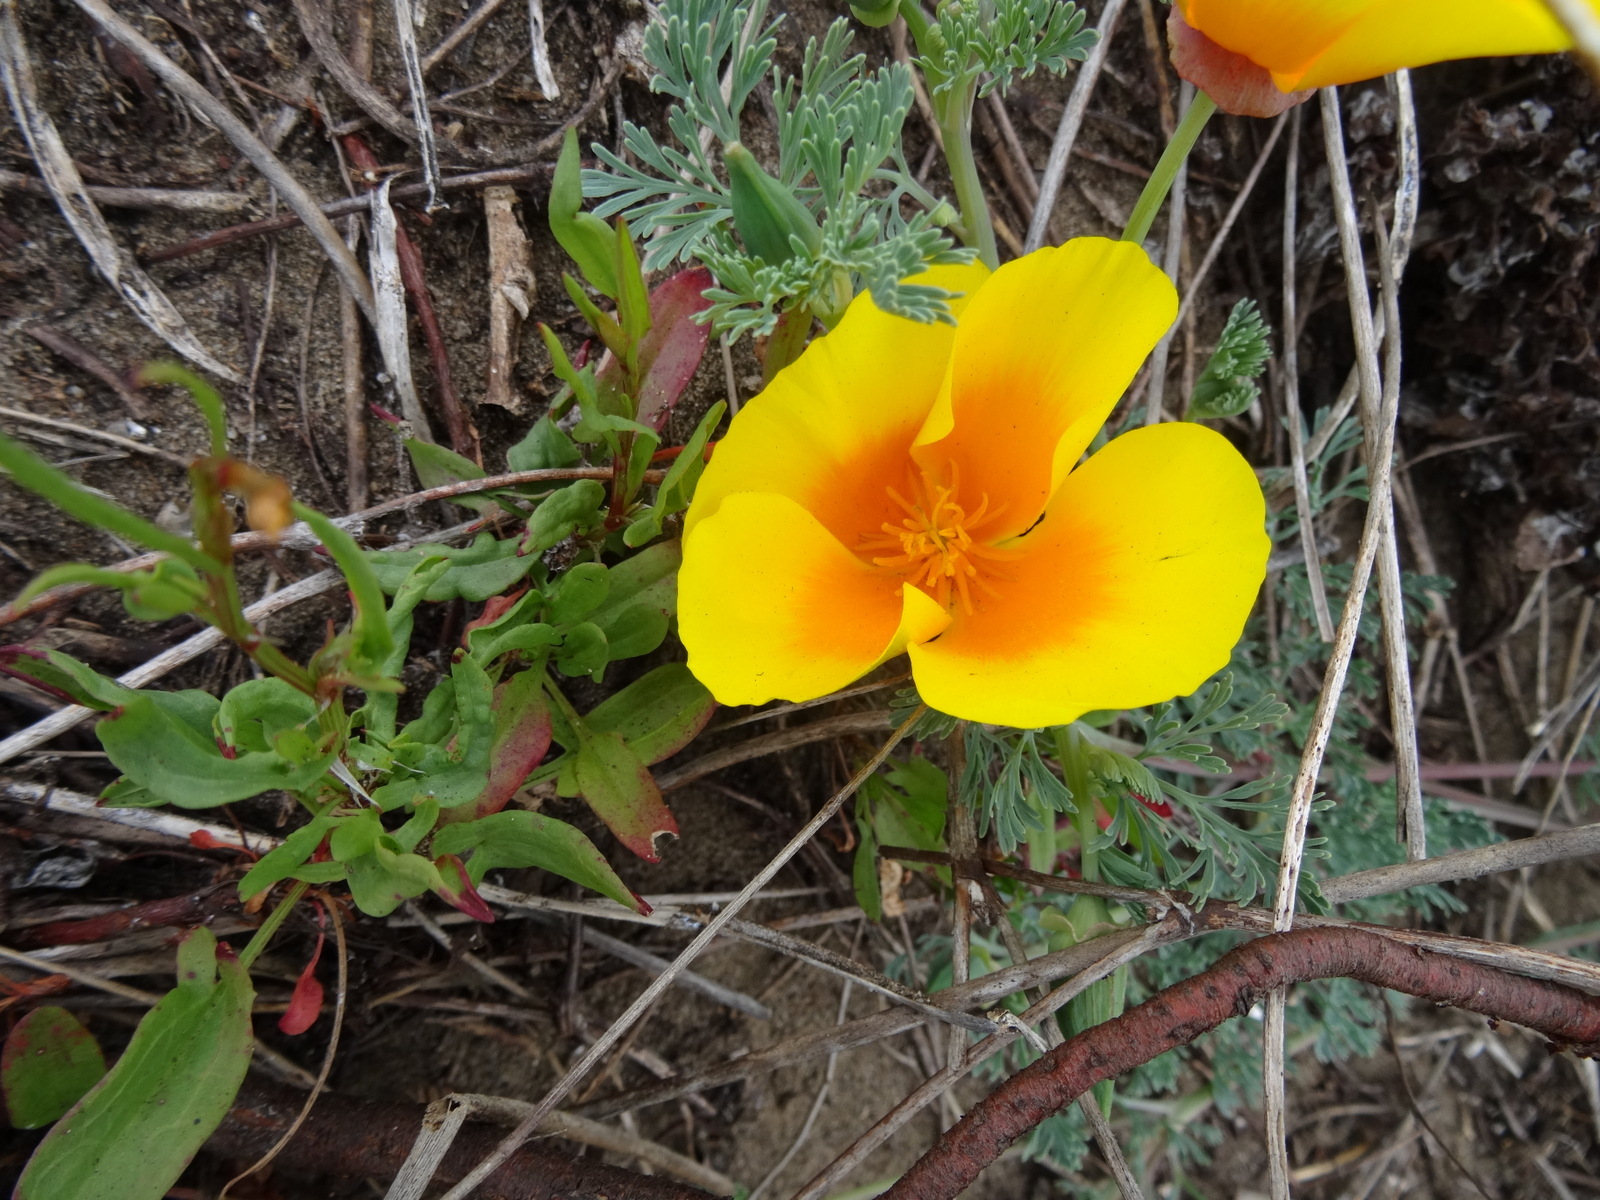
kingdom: Plantae
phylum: Tracheophyta
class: Magnoliopsida
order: Ranunculales
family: Papaveraceae
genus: Eschscholzia
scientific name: Eschscholzia californica
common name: California poppy
